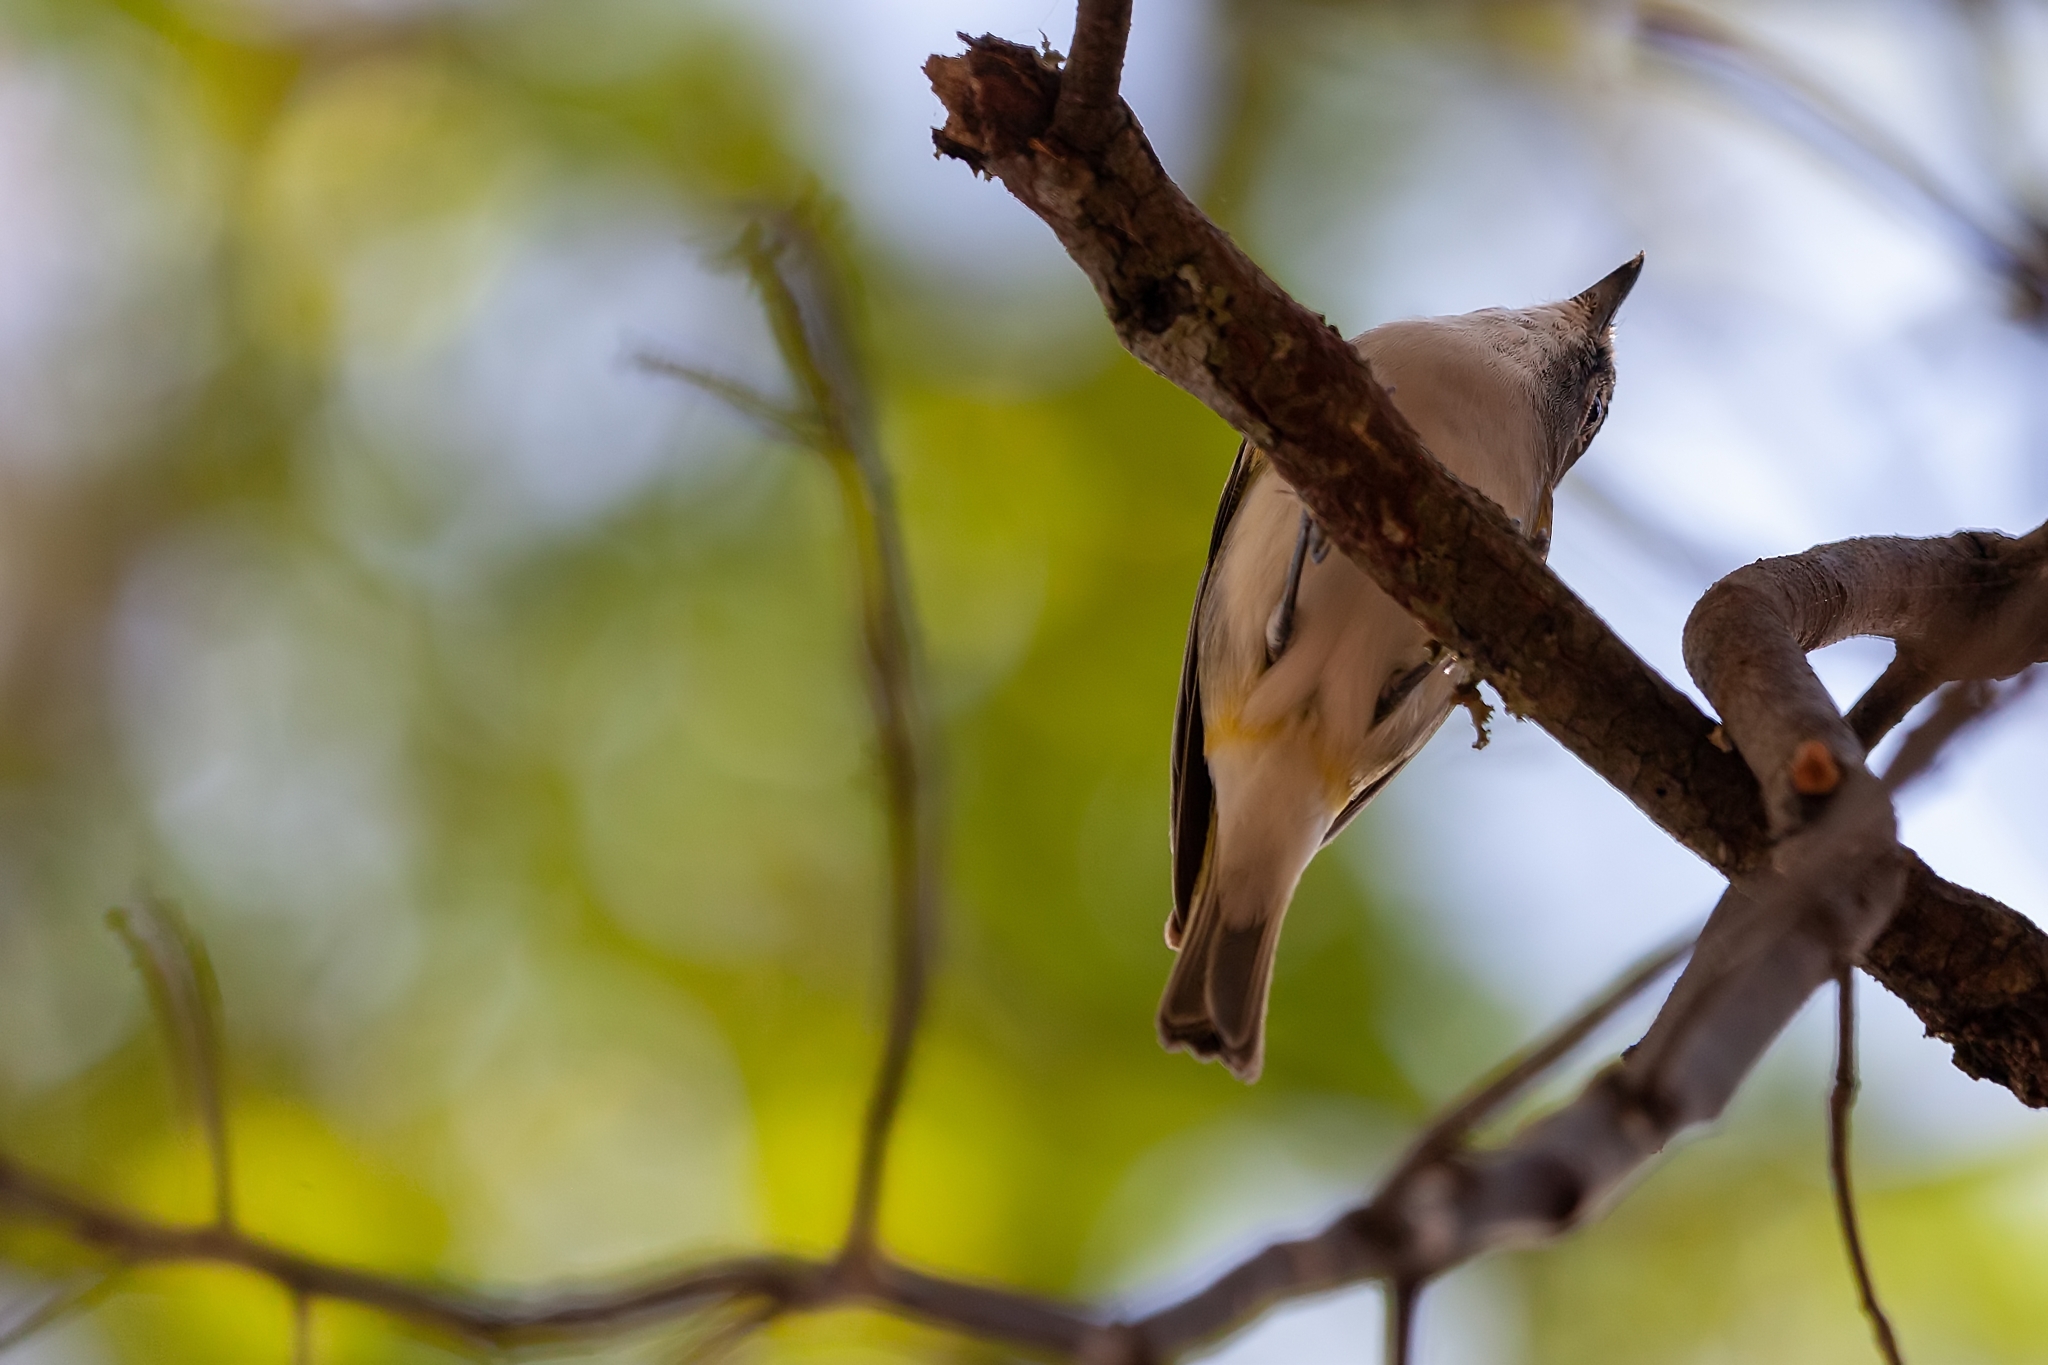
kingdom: Animalia
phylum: Chordata
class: Aves
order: Passeriformes
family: Vireonidae
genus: Vireo
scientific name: Vireo solitarius
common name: Blue-headed vireo
